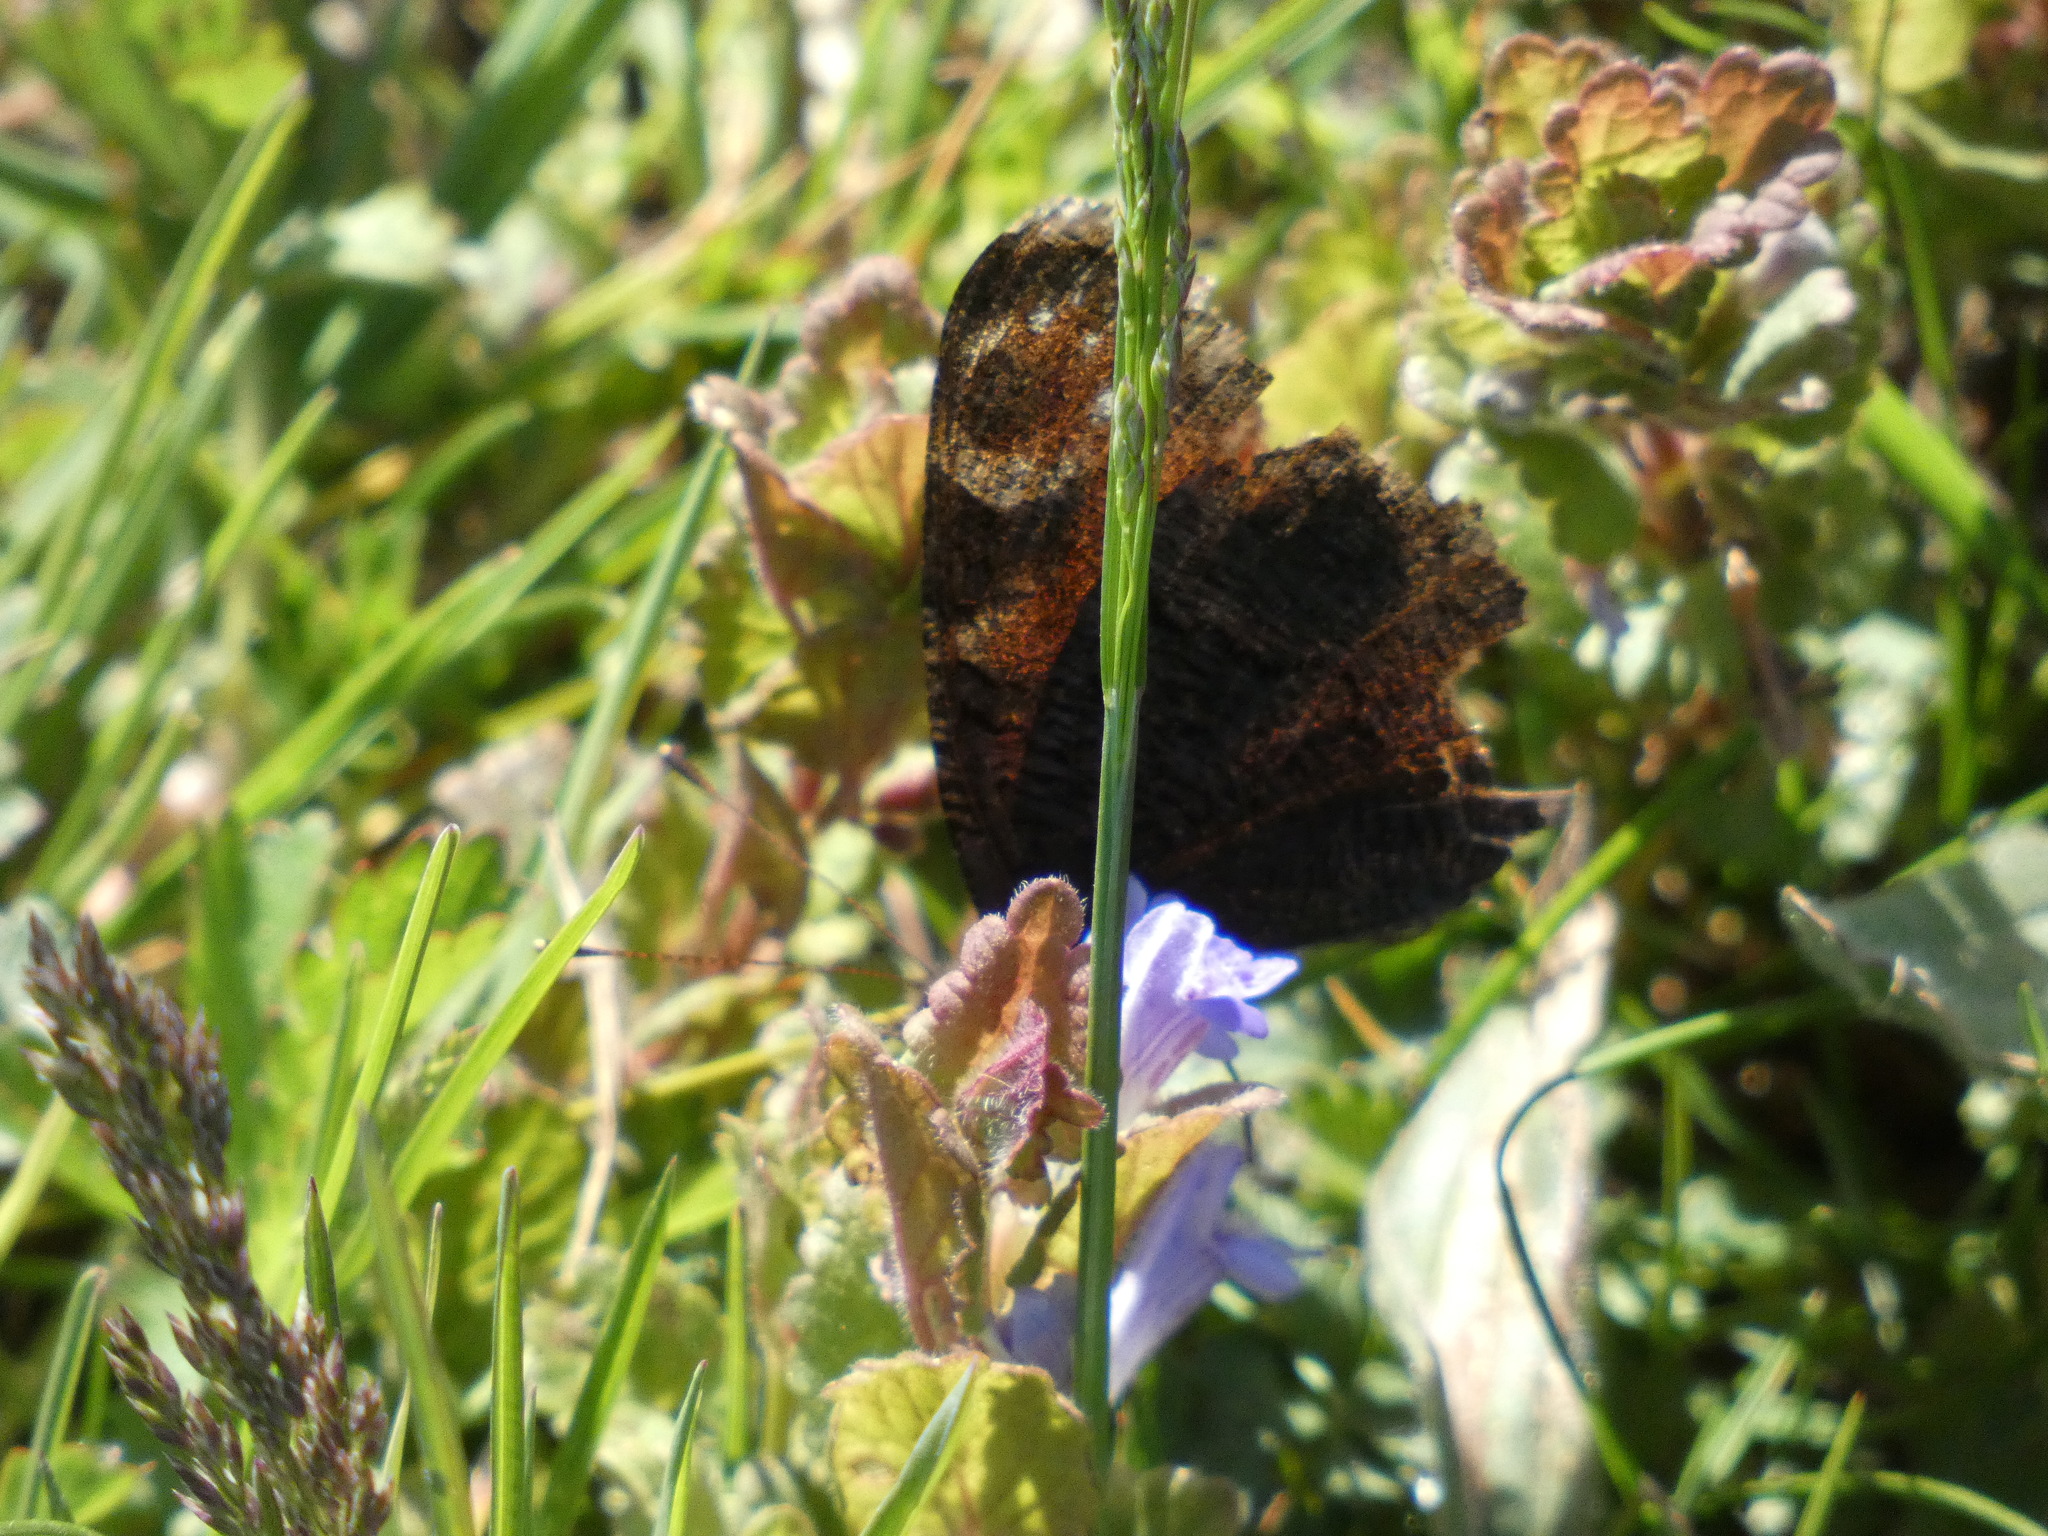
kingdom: Animalia
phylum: Arthropoda
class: Insecta
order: Lepidoptera
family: Nymphalidae
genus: Aglais
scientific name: Aglais io
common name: Peacock
